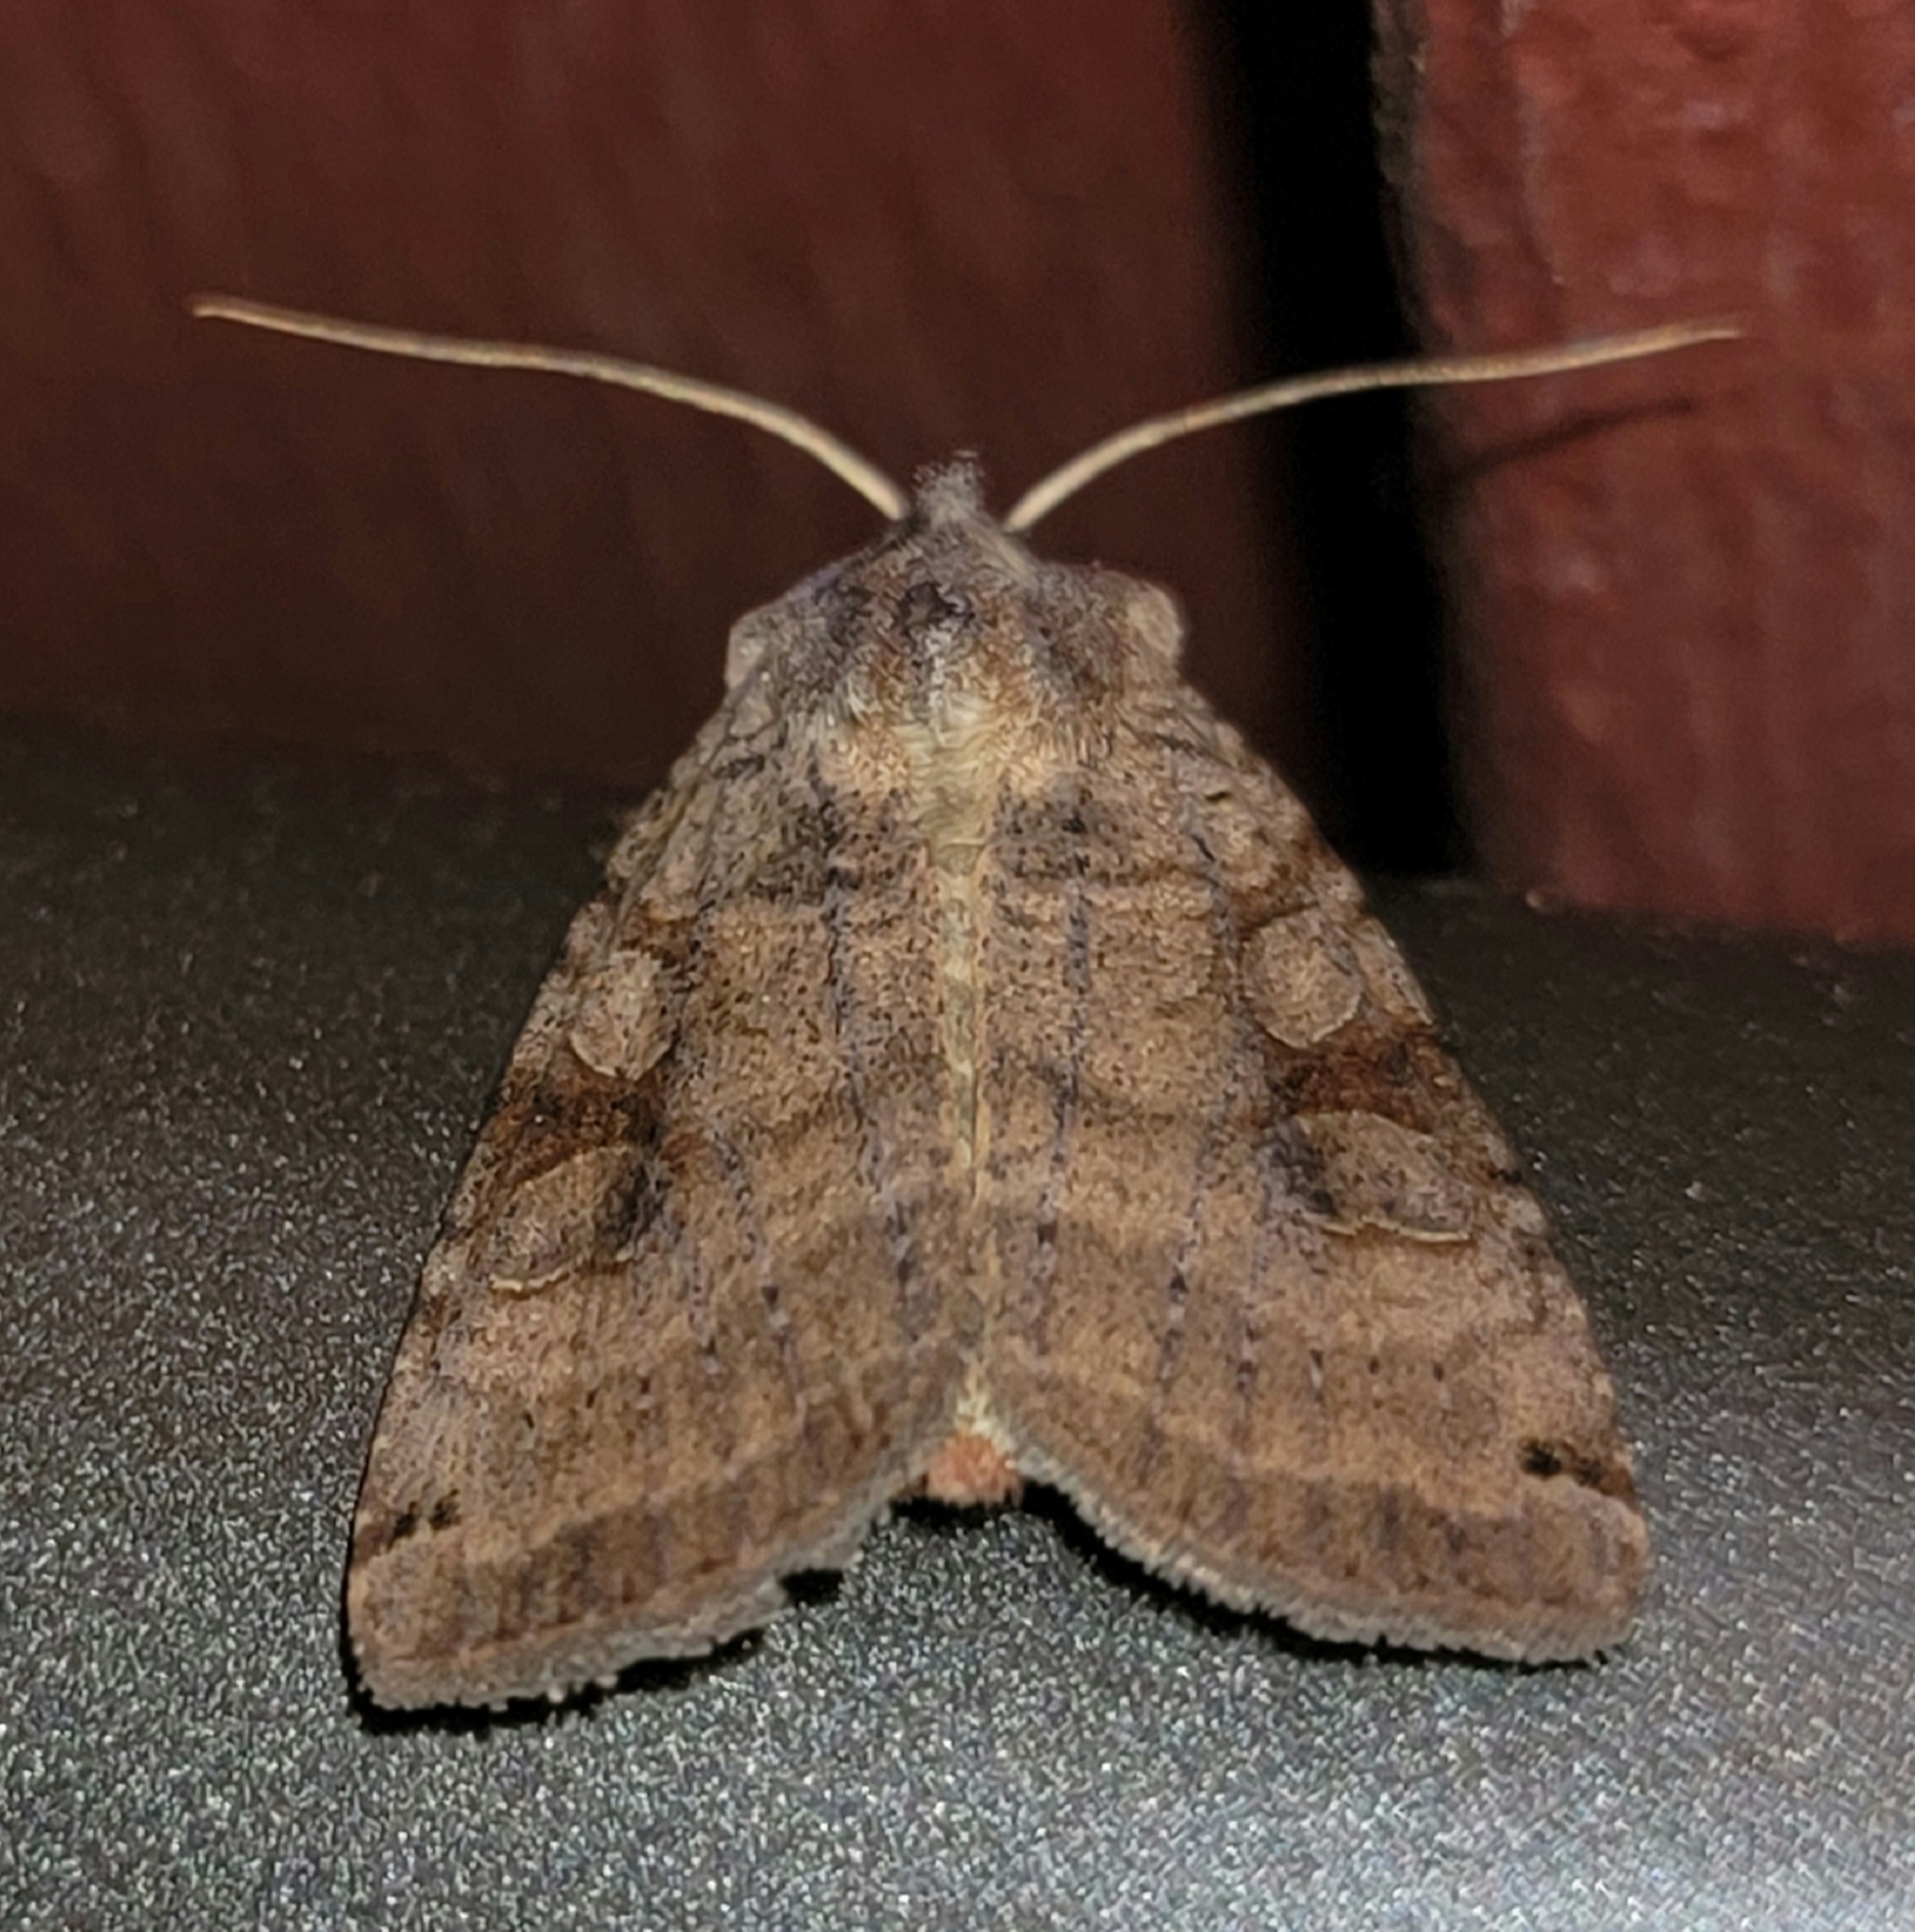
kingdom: Animalia
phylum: Arthropoda
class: Insecta
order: Lepidoptera
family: Noctuidae
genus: Xestia
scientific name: Xestia smithii
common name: Smith's dart
